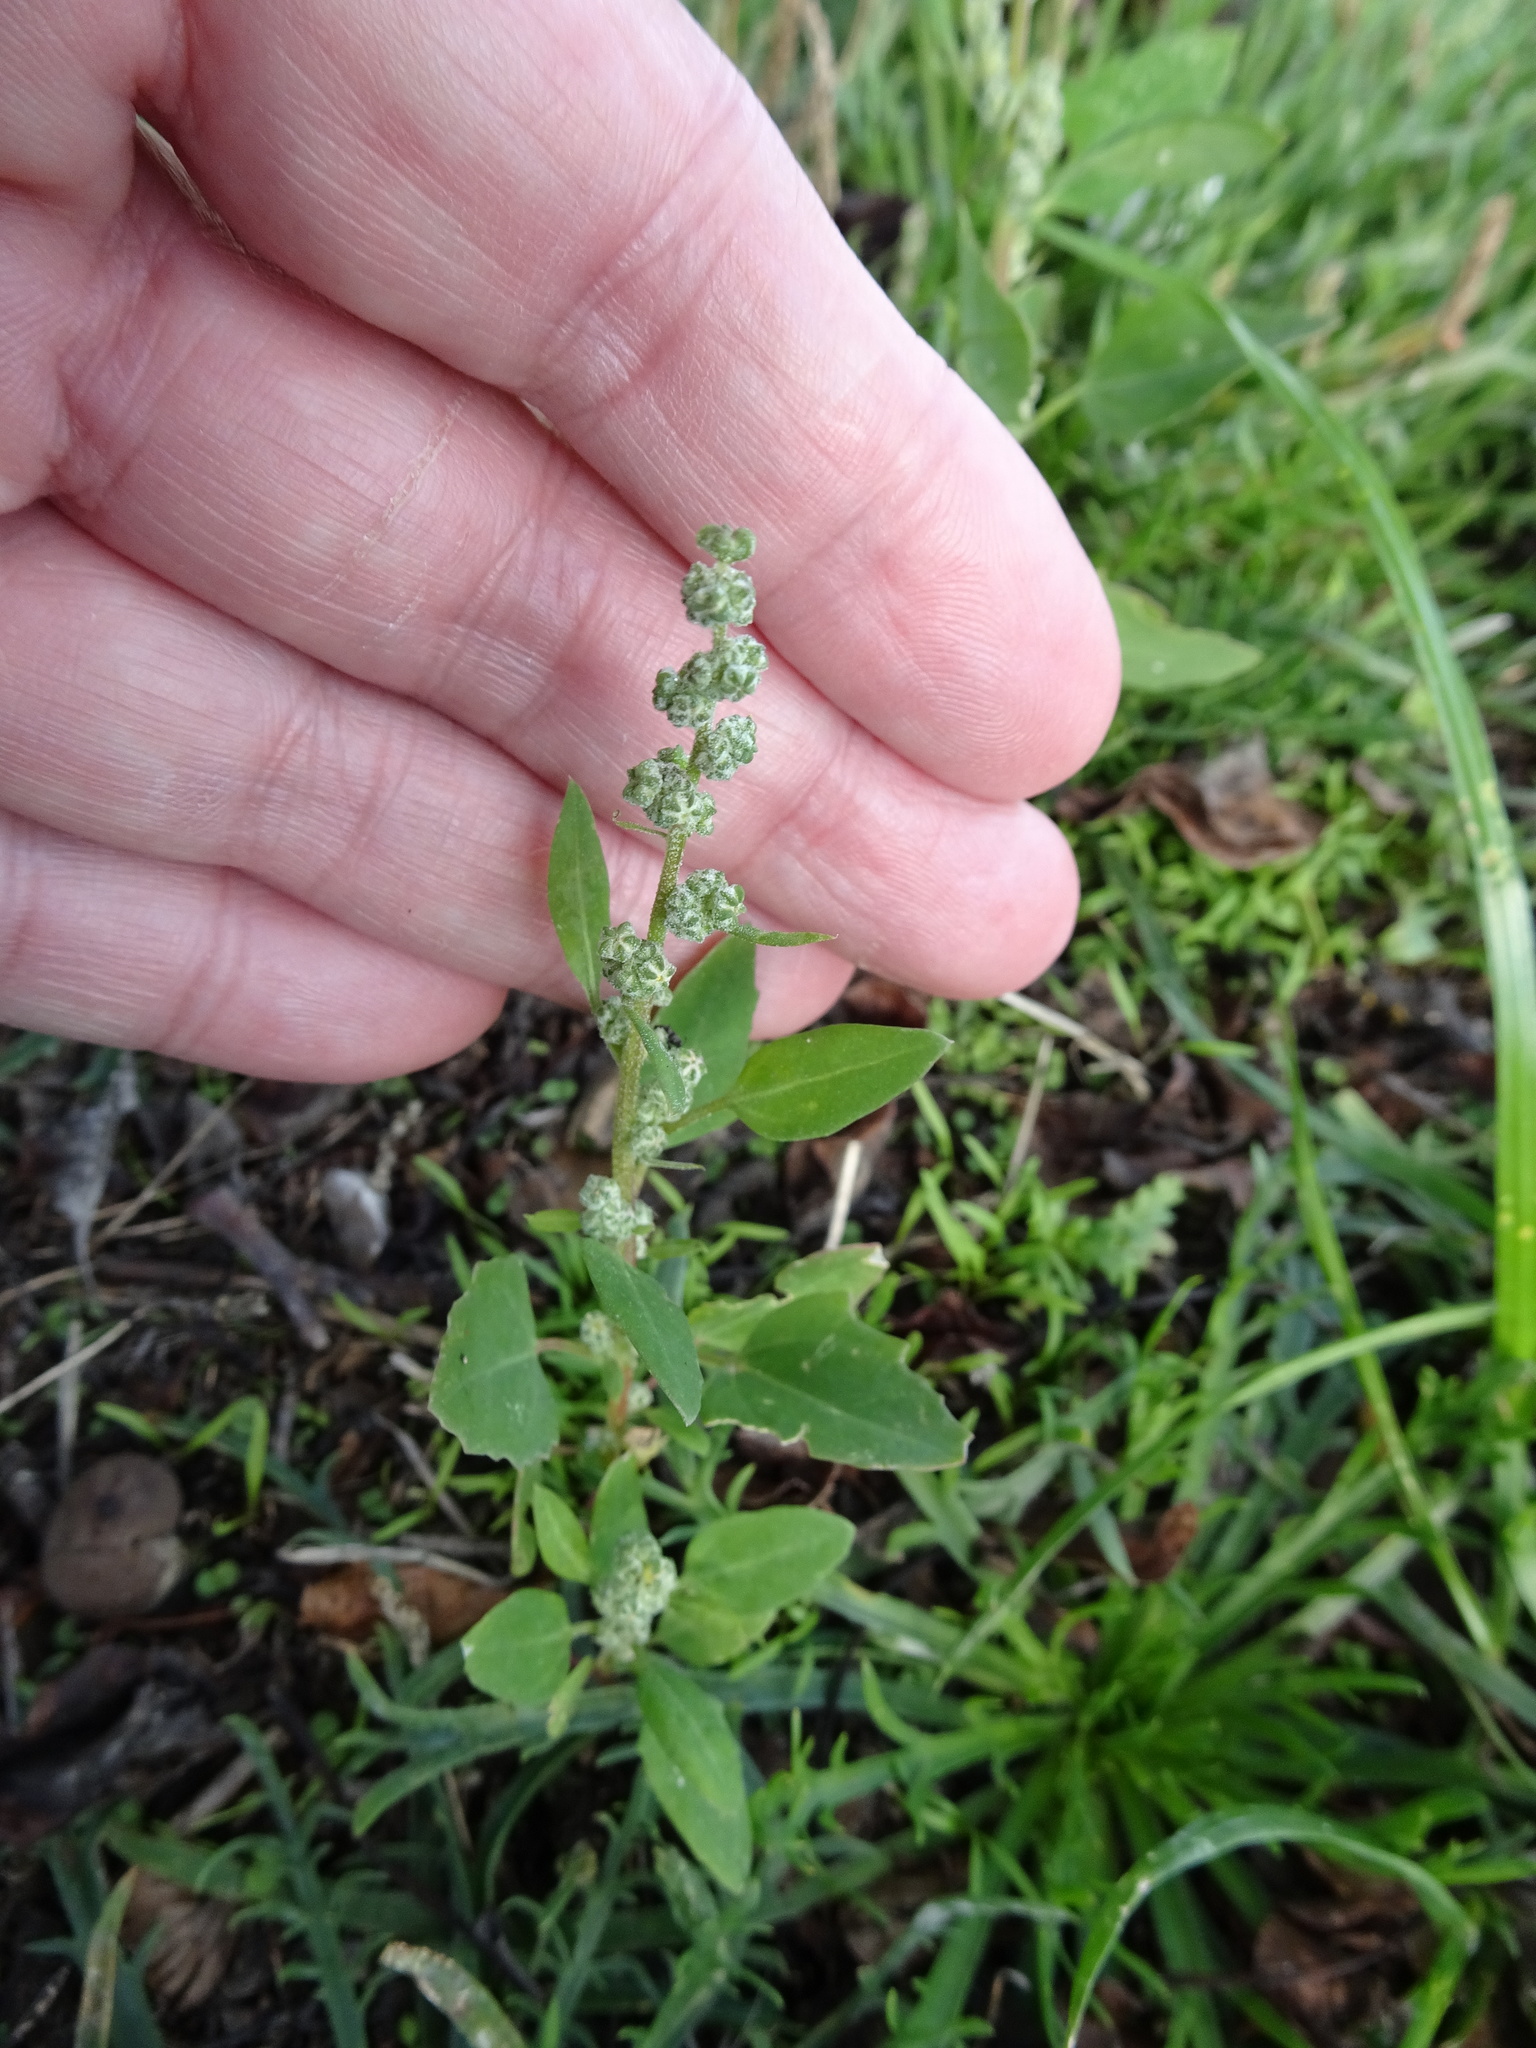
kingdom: Plantae
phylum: Tracheophyta
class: Magnoliopsida
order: Caryophyllales
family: Amaranthaceae
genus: Chenopodium
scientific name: Chenopodium album
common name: Fat-hen
